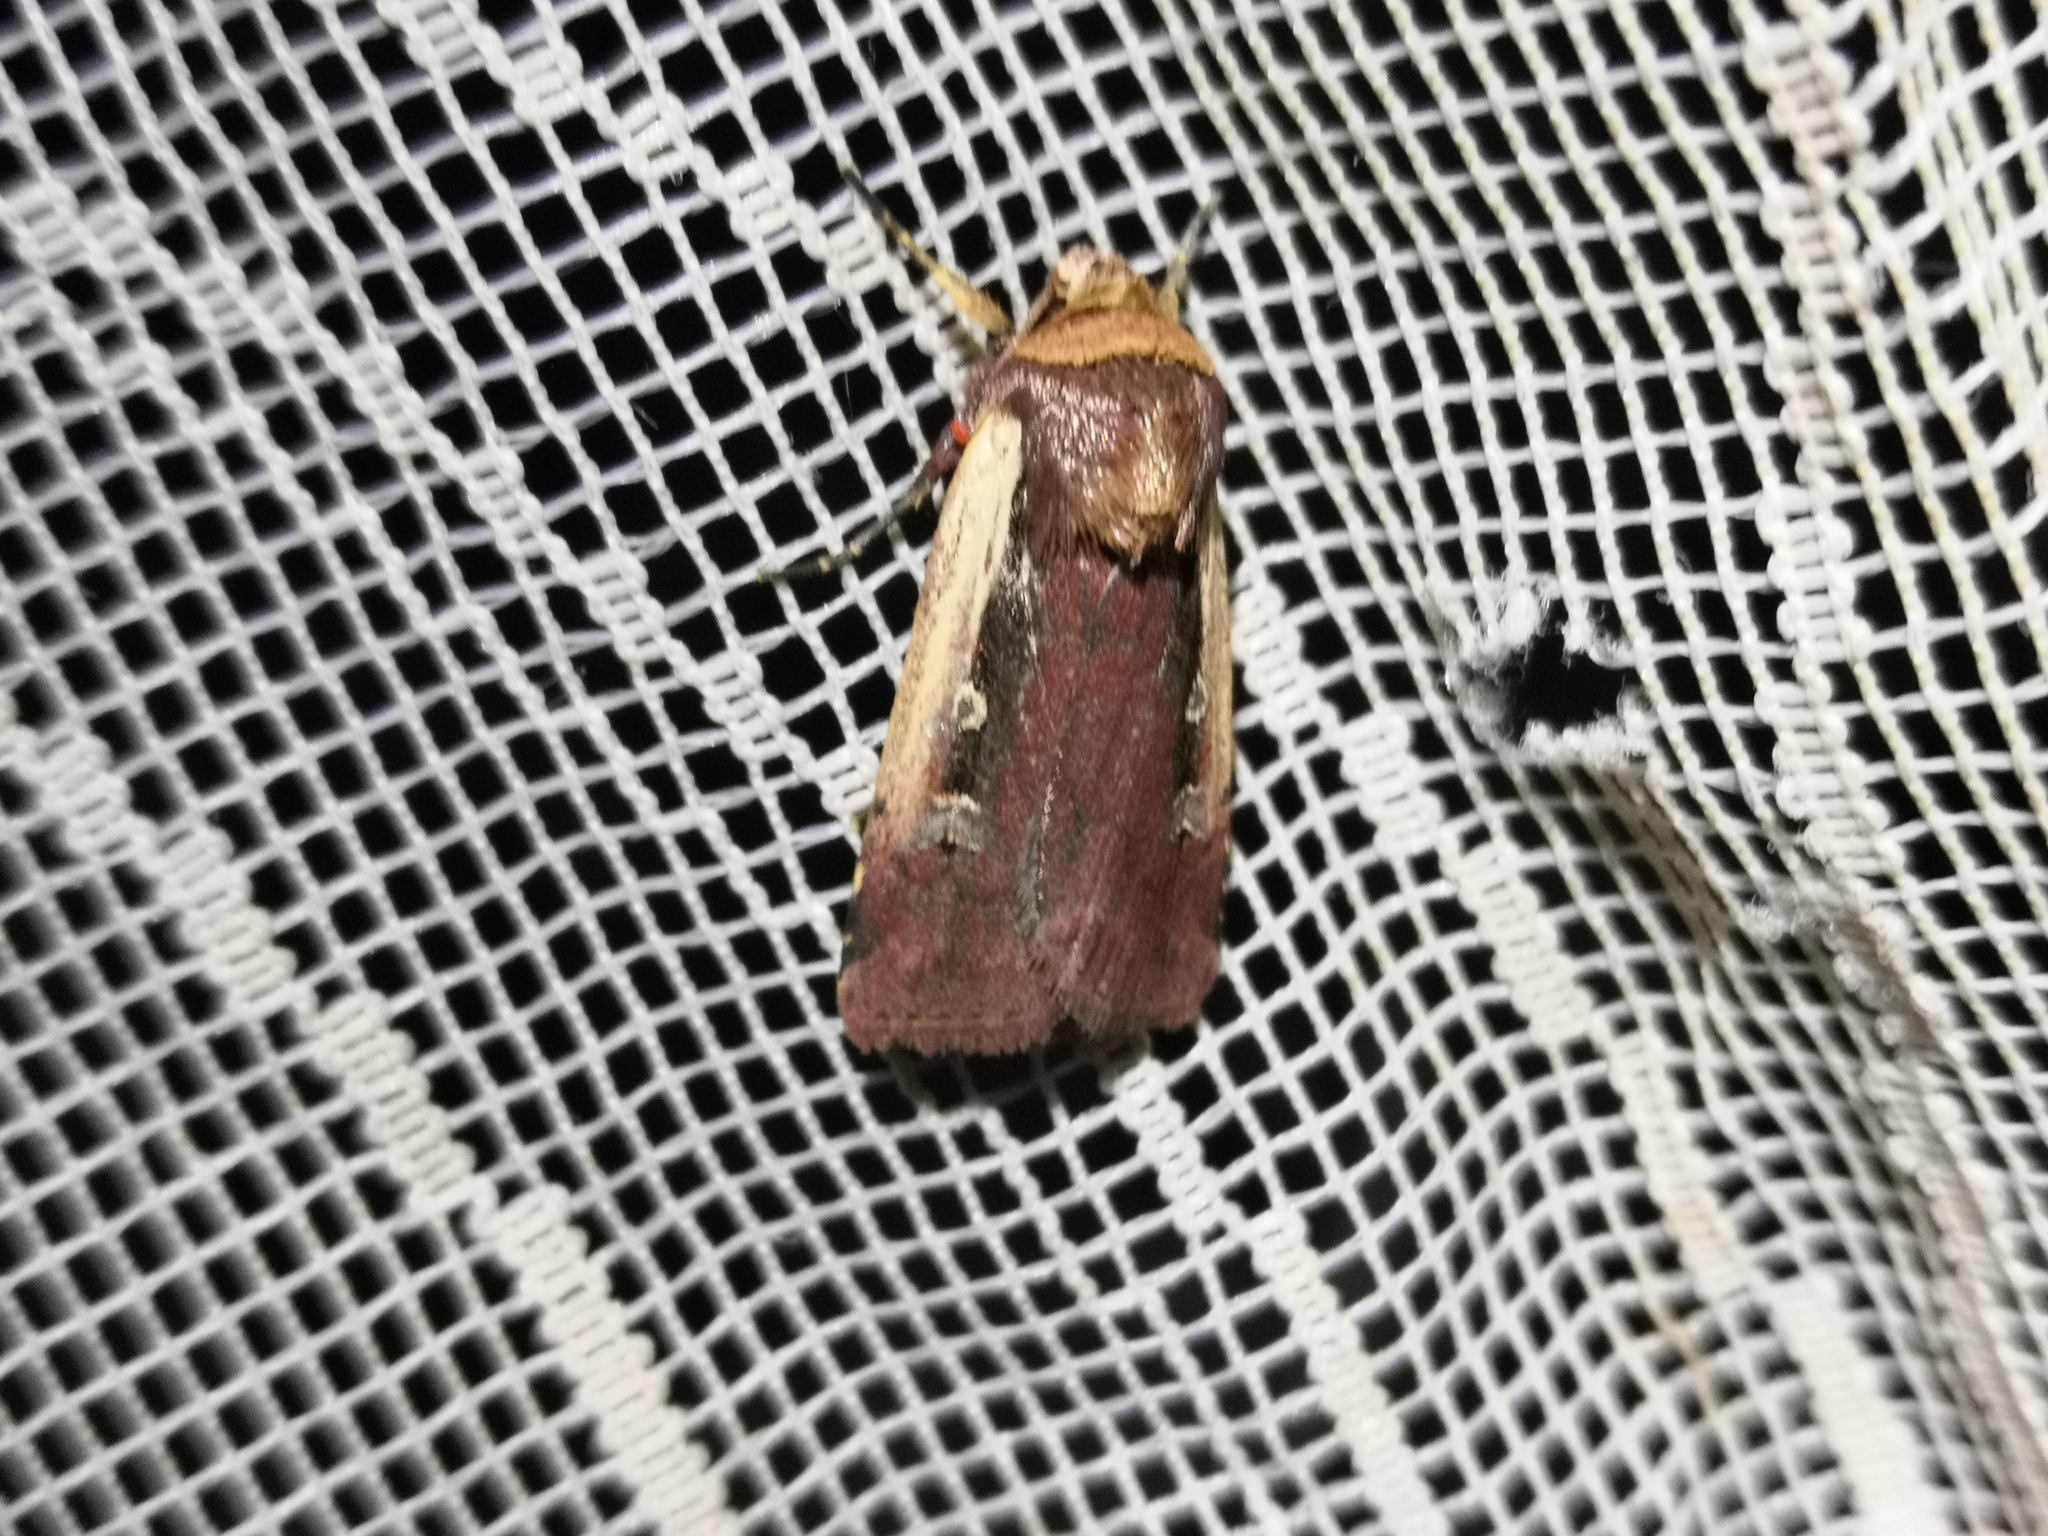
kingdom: Animalia
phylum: Arthropoda
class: Insecta
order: Lepidoptera
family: Noctuidae
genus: Ochropleura
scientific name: Ochropleura plecta
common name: Flame shoulder
